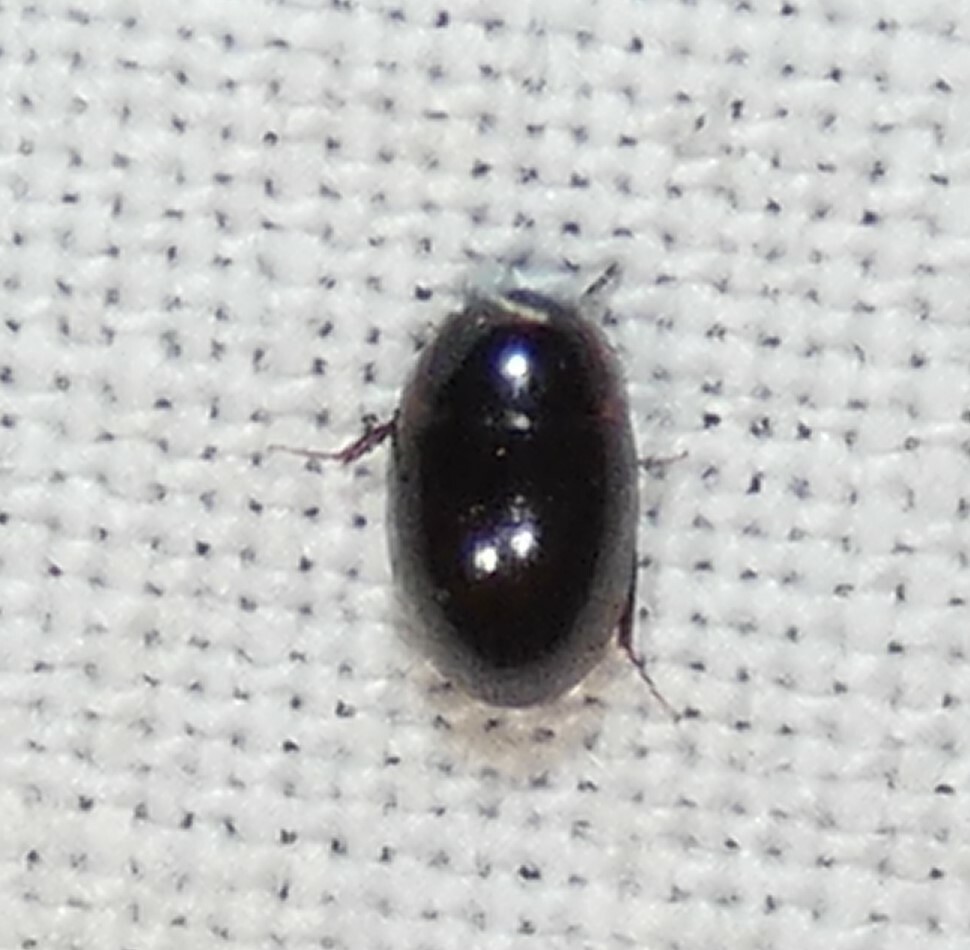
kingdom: Animalia
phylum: Arthropoda
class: Insecta
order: Coleoptera
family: Hydrophilidae
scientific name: Hydrophilidae
